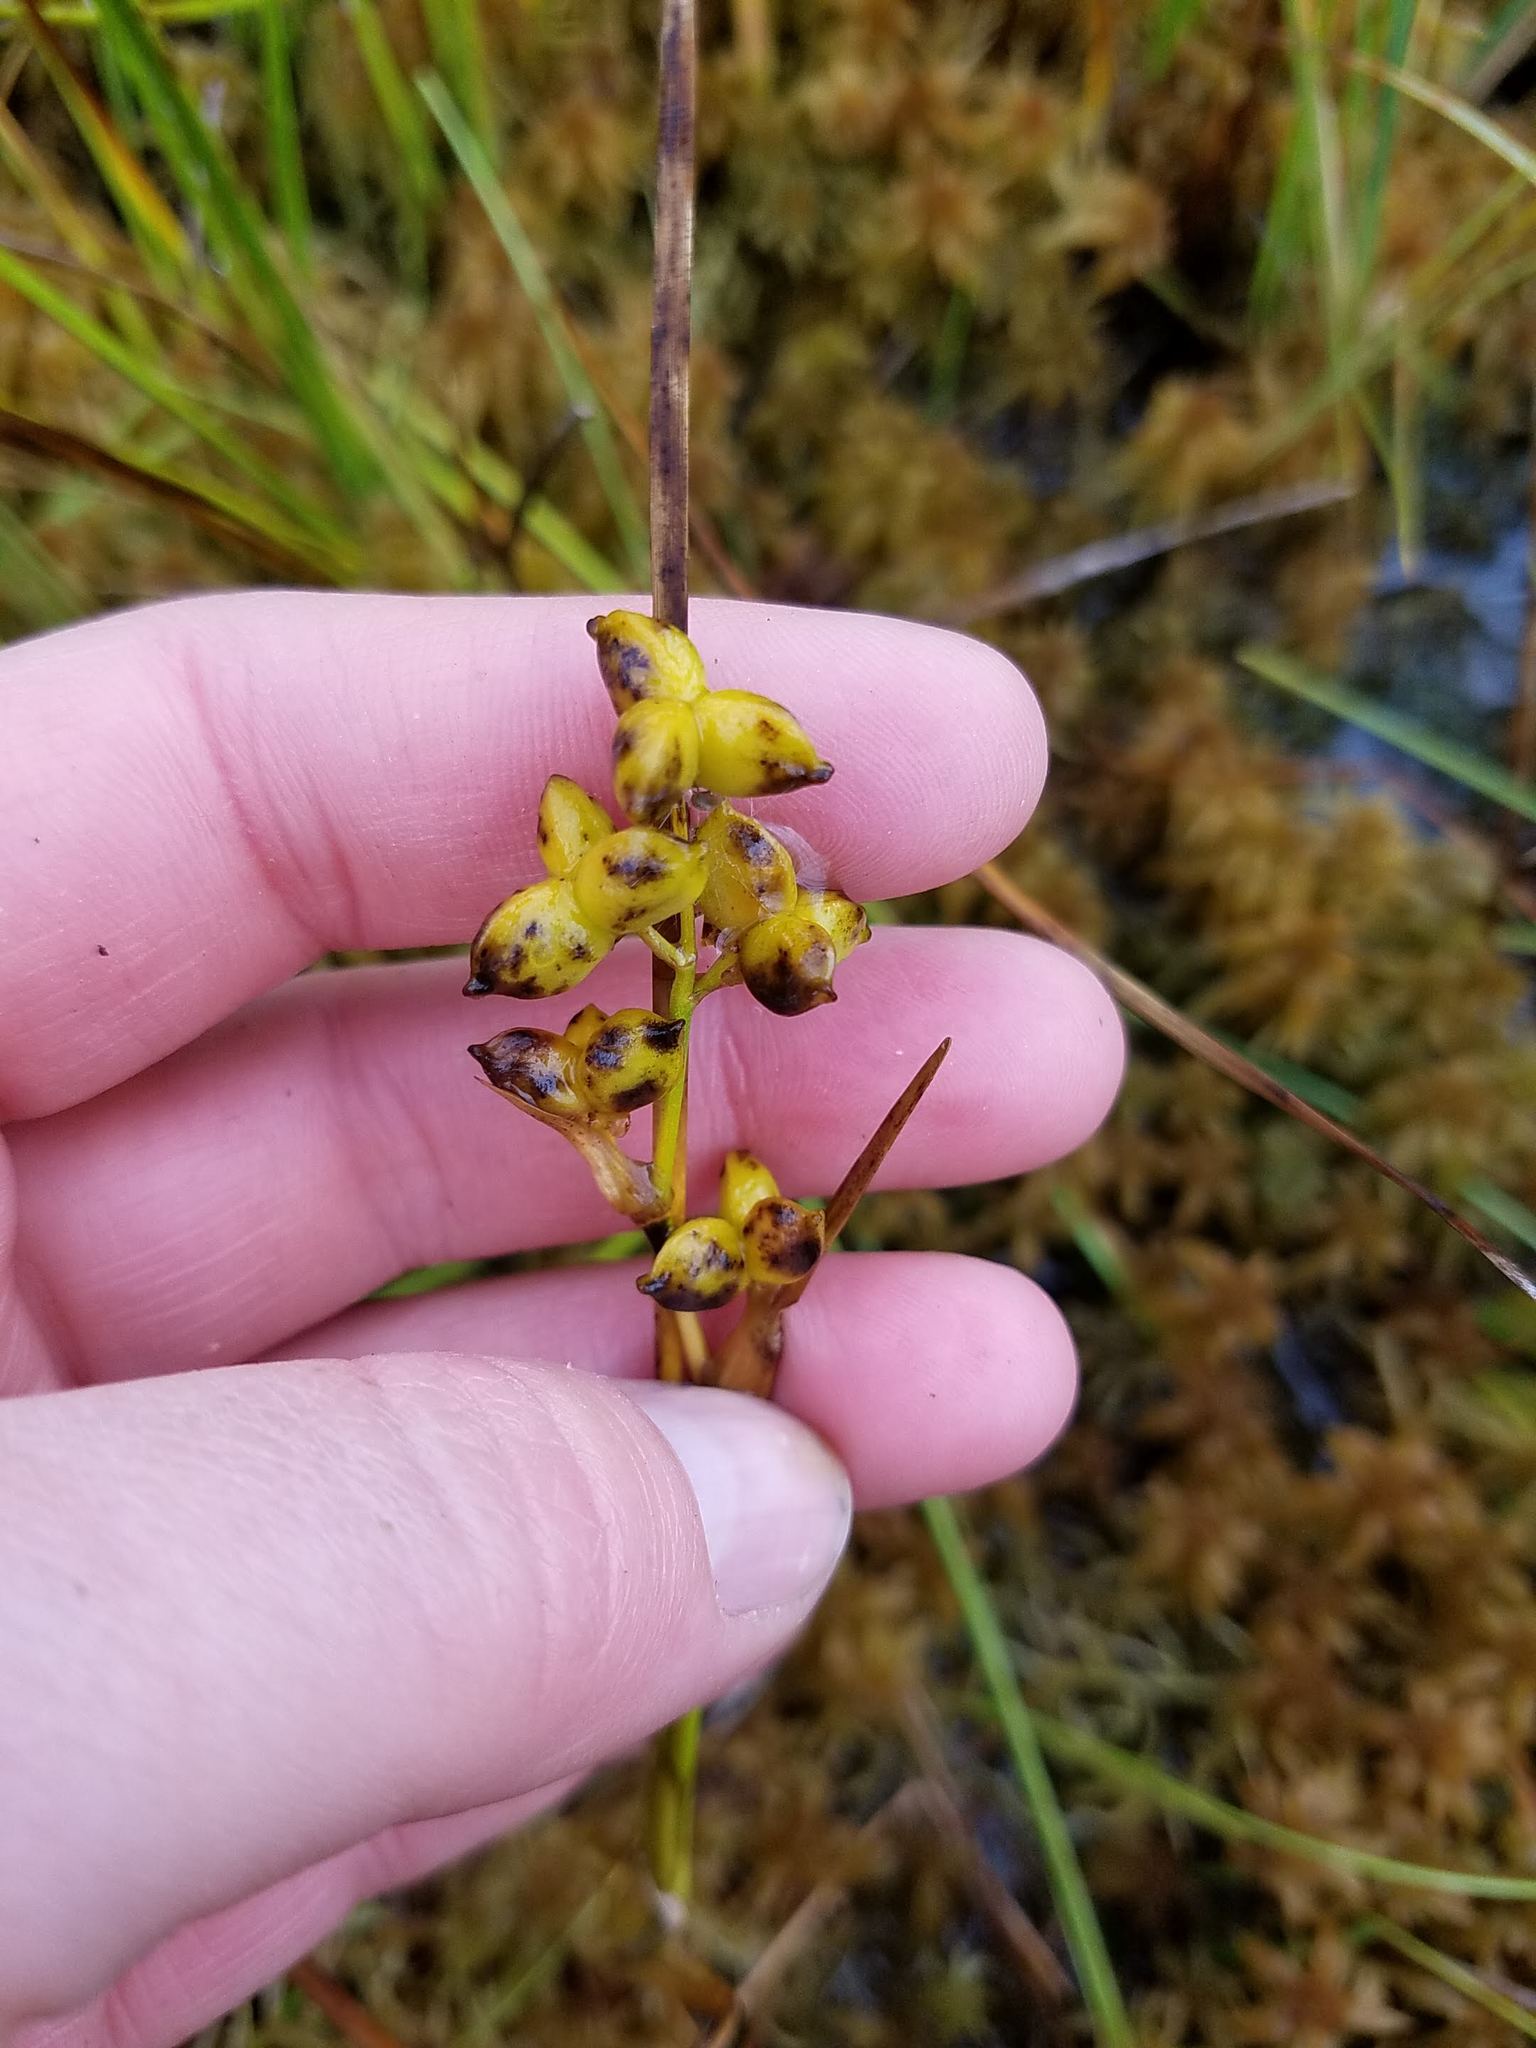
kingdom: Plantae
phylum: Tracheophyta
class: Liliopsida
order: Alismatales
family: Scheuchzeriaceae
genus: Scheuchzeria
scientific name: Scheuchzeria palustris
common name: Rannoch-rush
